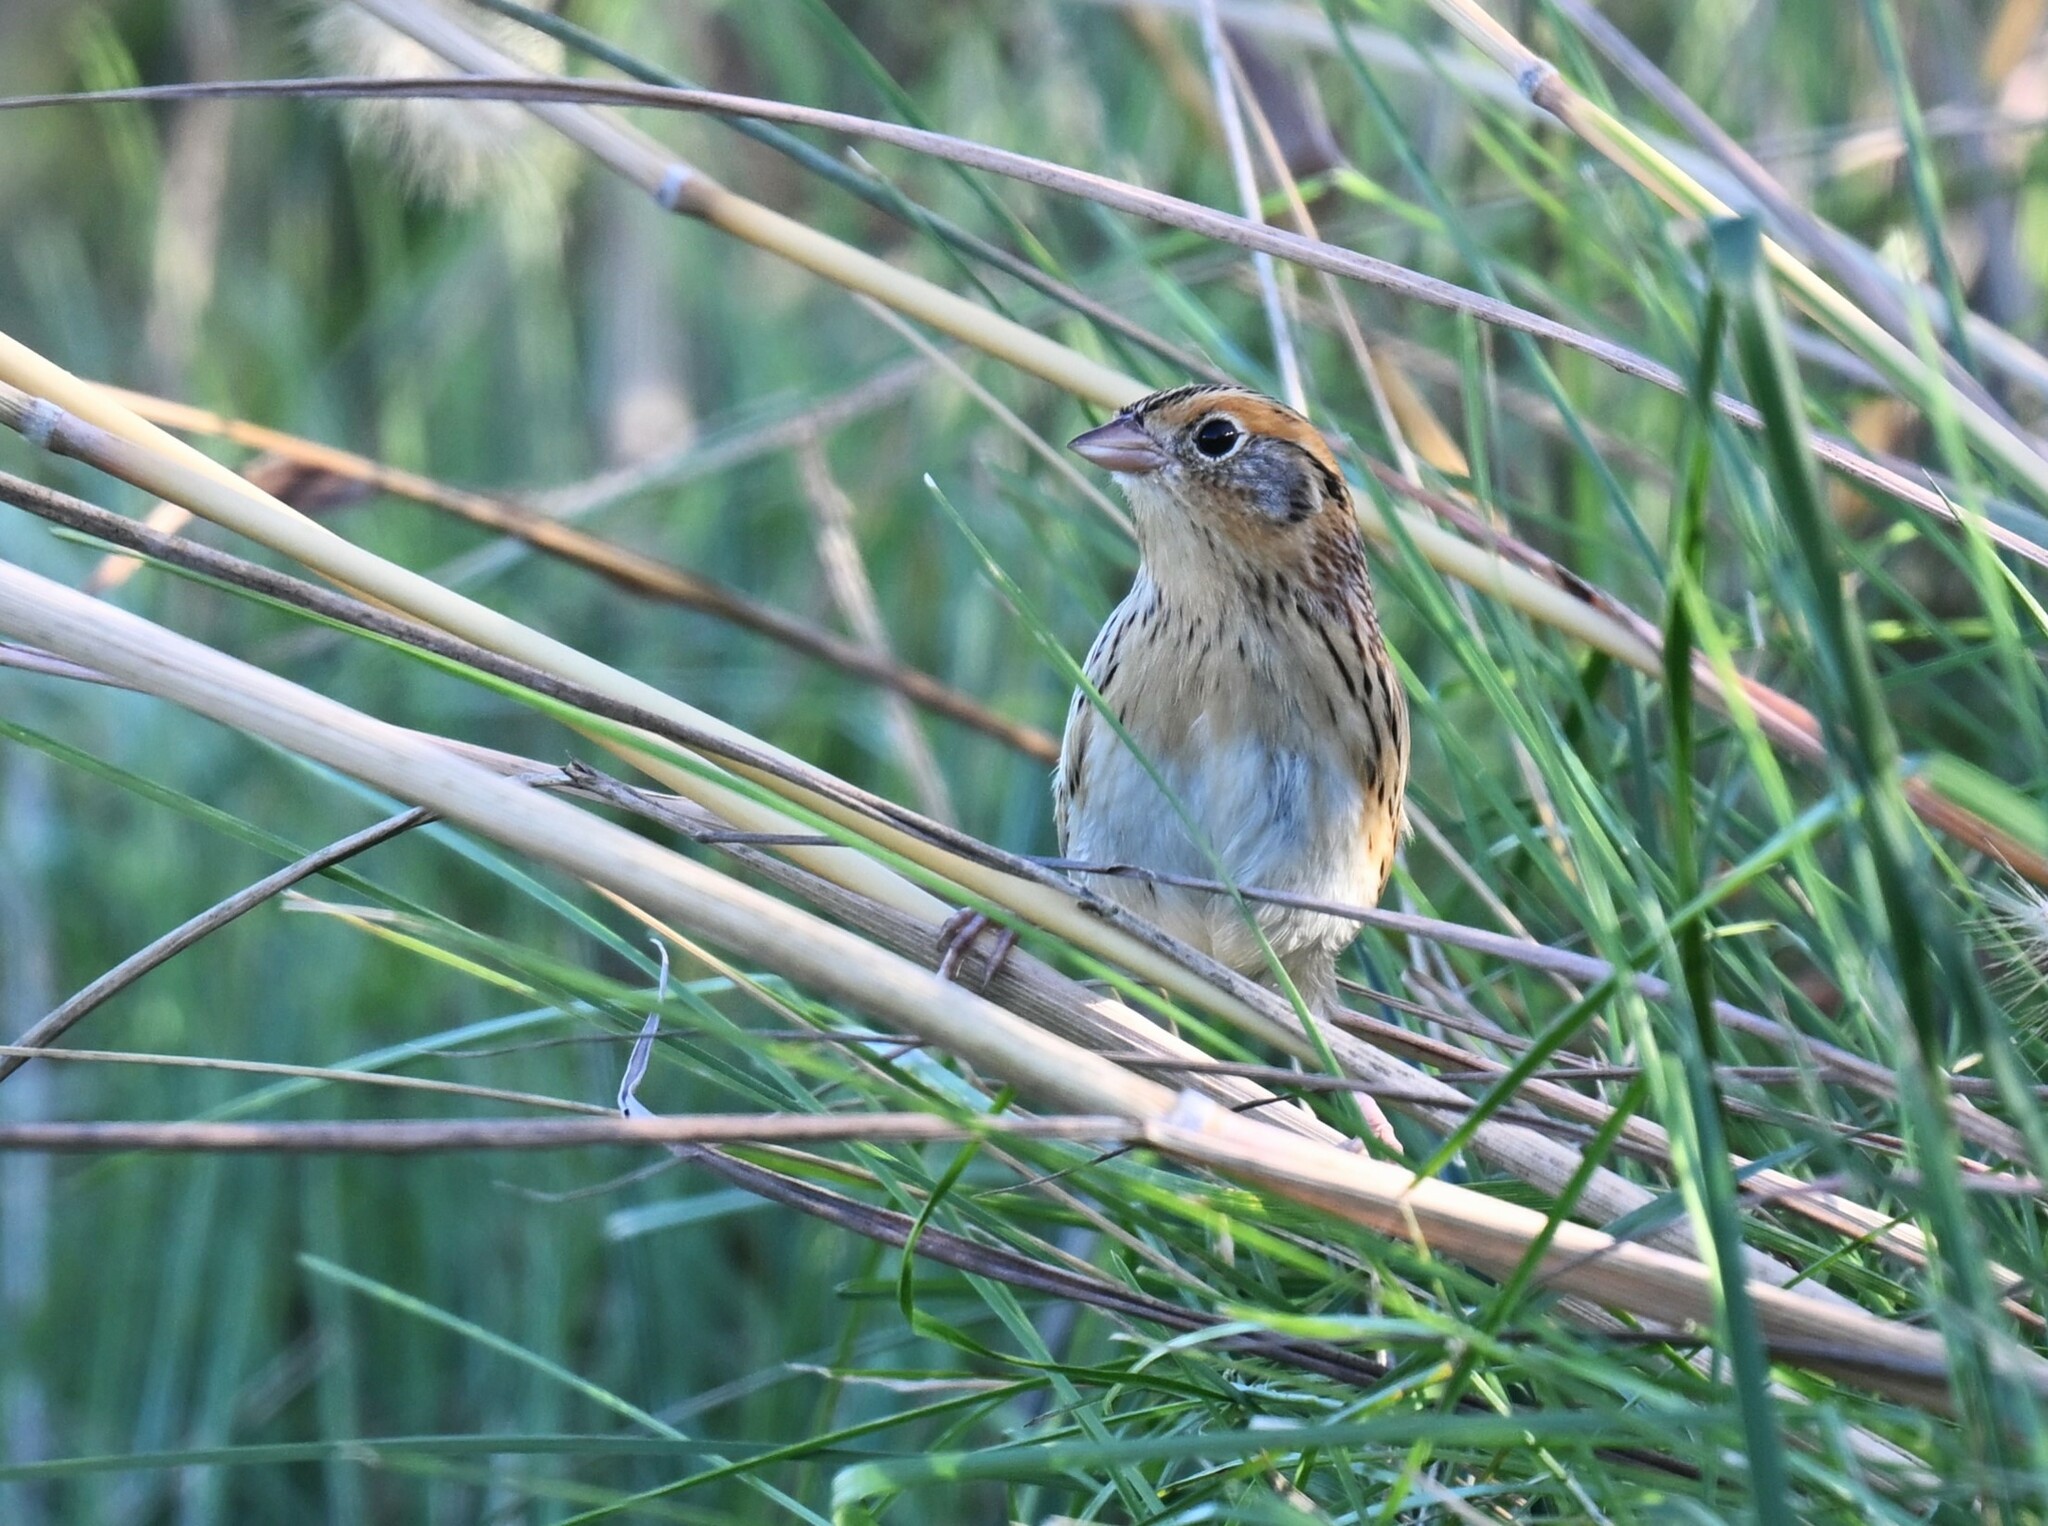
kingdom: Animalia
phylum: Chordata
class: Aves
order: Passeriformes
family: Passerellidae
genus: Ammospiza
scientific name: Ammospiza leconteii
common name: Le conte's sparrow
